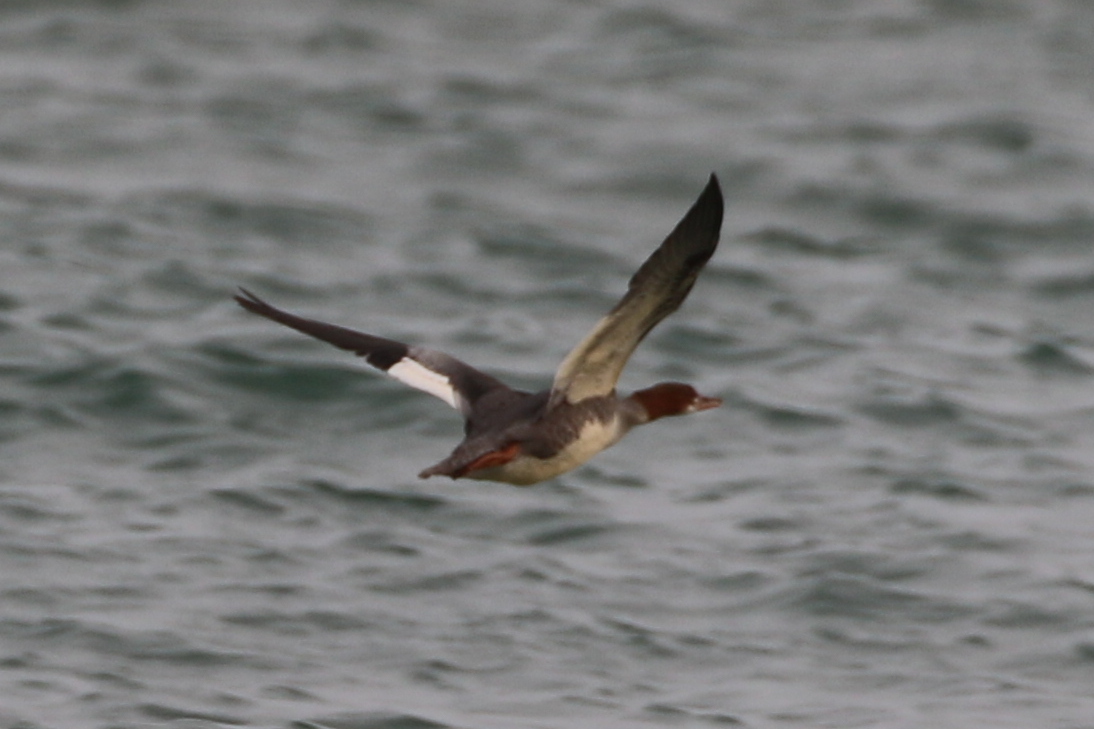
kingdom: Animalia
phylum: Chordata
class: Aves
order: Anseriformes
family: Anatidae
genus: Mergus
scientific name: Mergus merganser
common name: Common merganser
